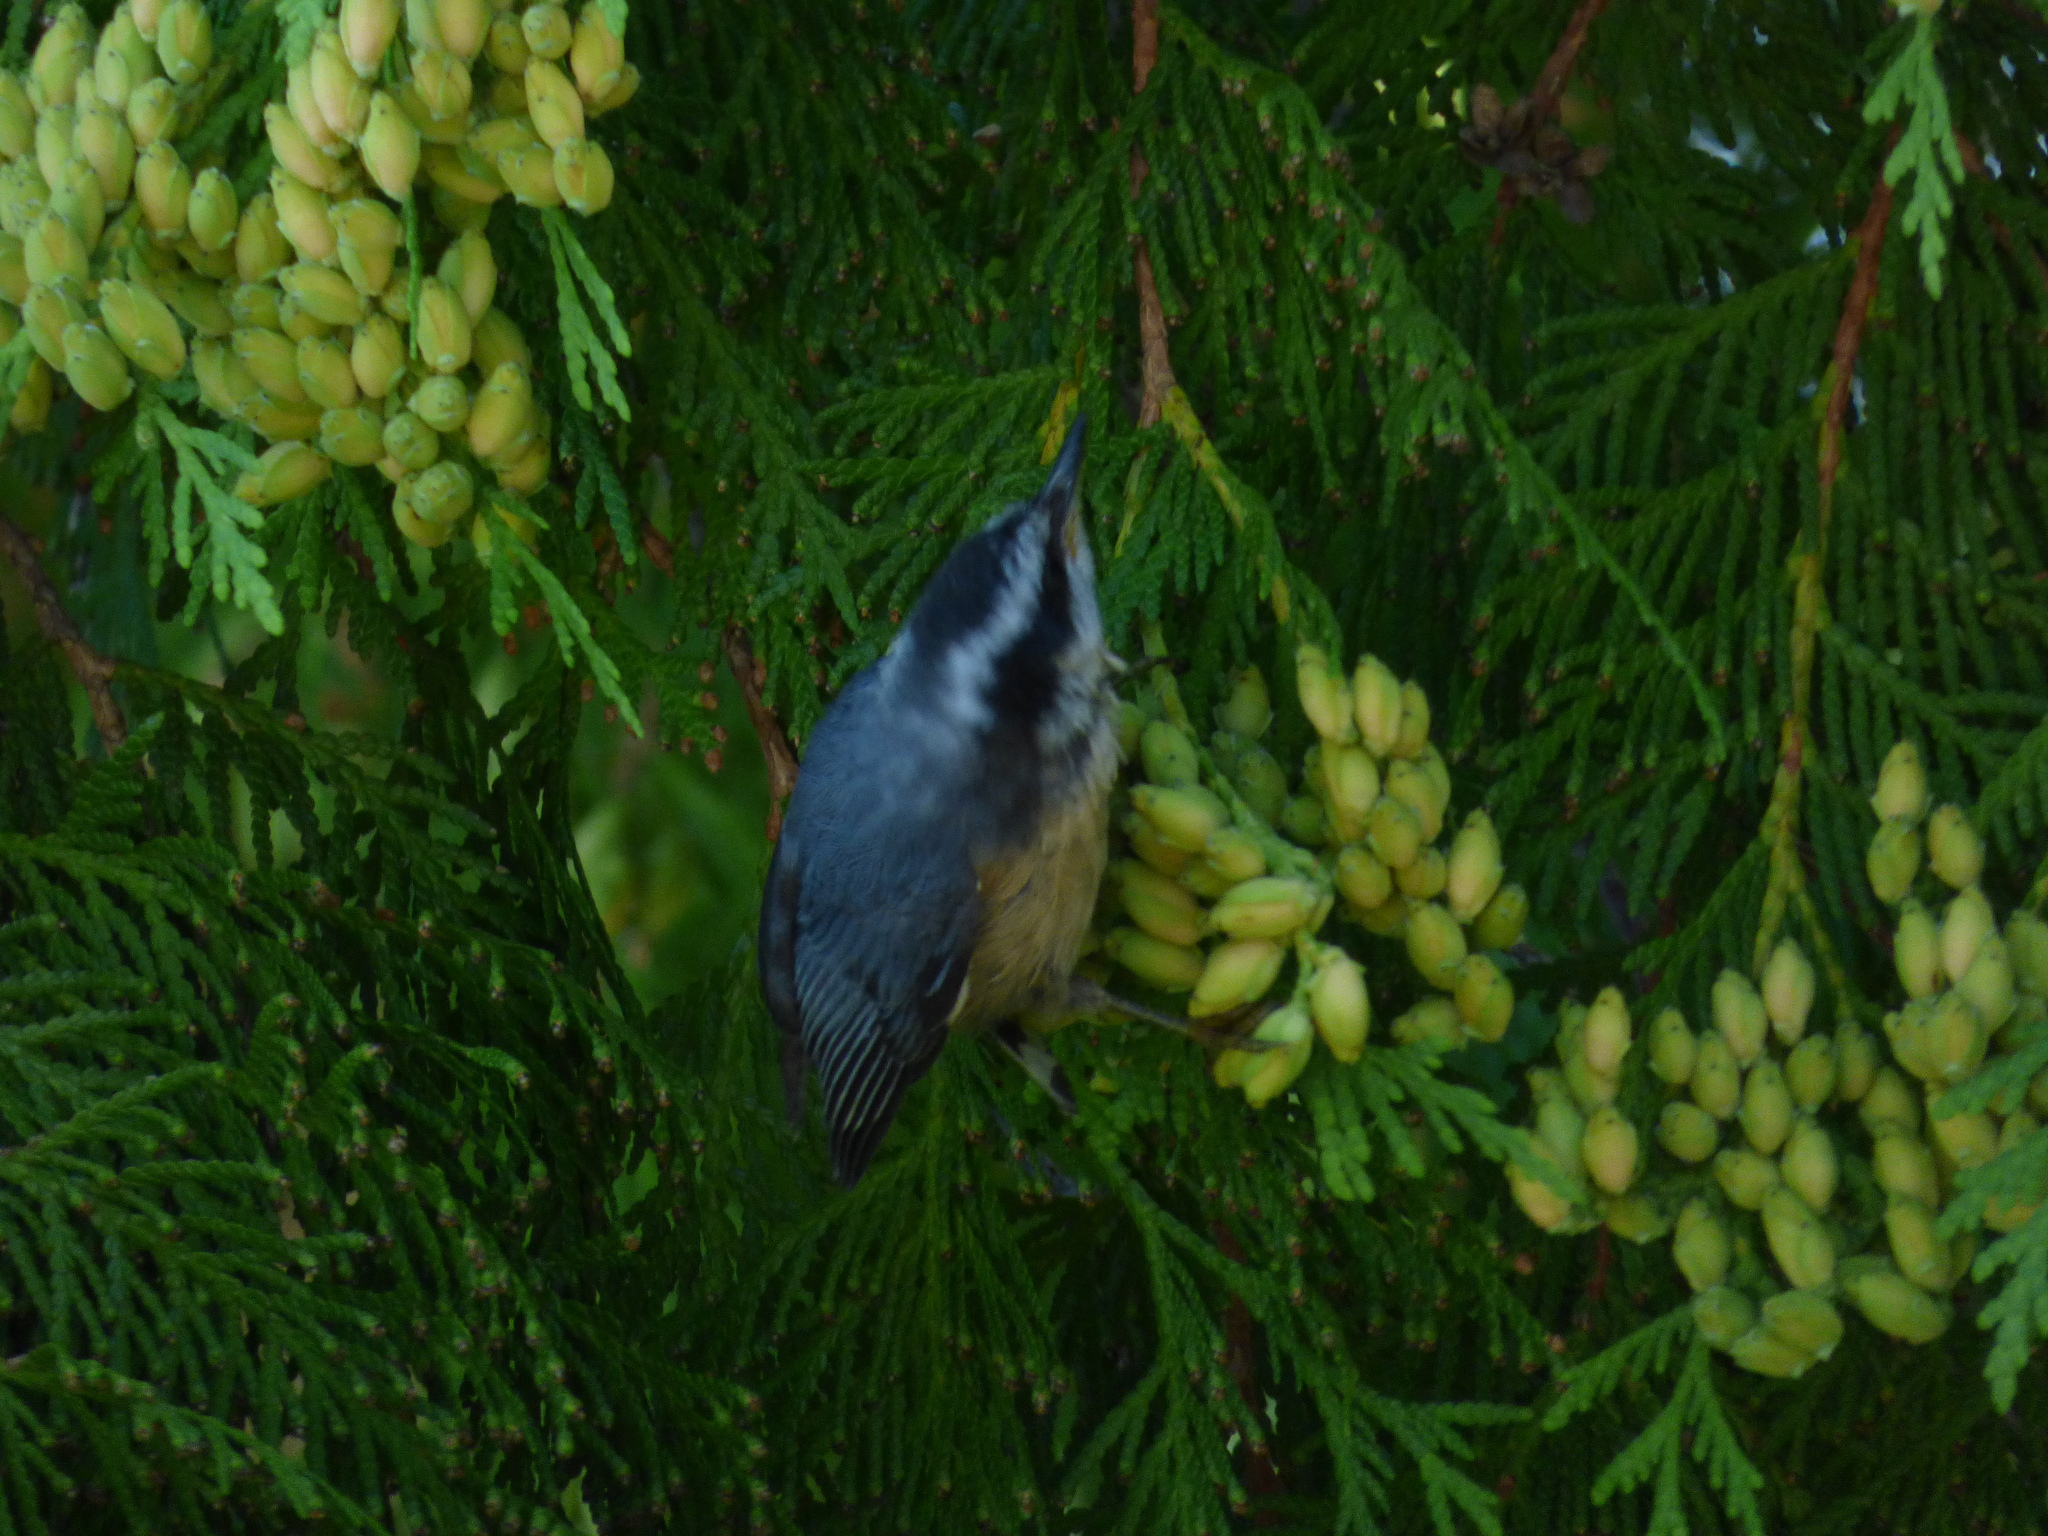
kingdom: Animalia
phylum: Chordata
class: Aves
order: Passeriformes
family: Sittidae
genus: Sitta
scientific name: Sitta canadensis
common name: Red-breasted nuthatch
